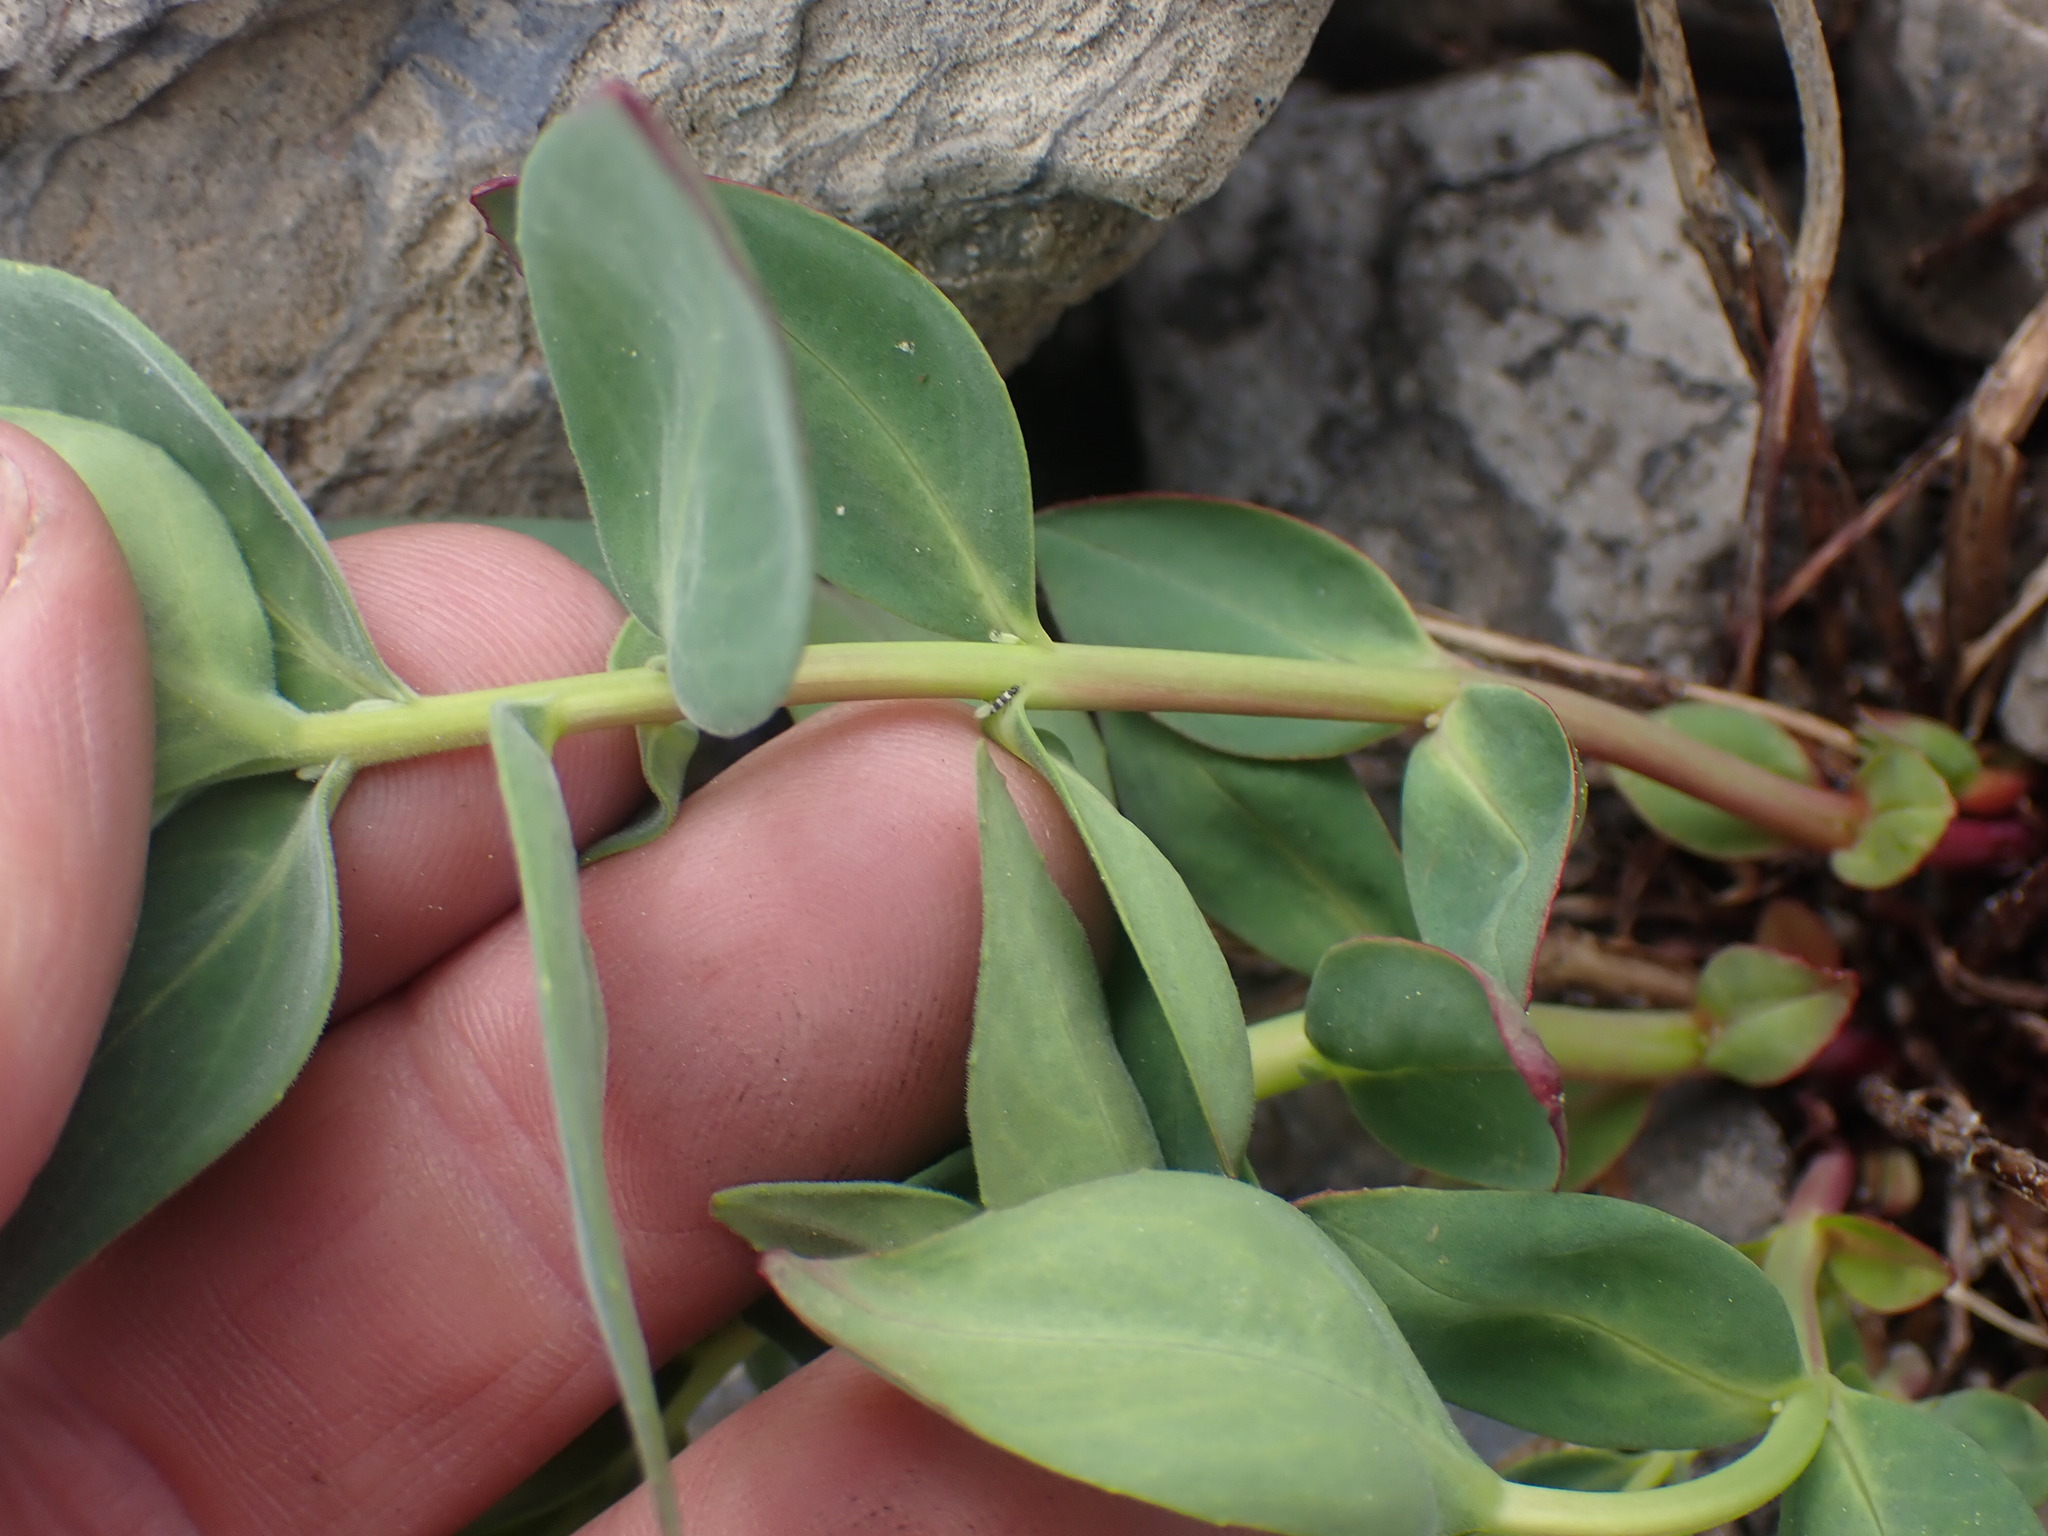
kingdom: Plantae
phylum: Tracheophyta
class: Magnoliopsida
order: Myrtales
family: Onagraceae
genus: Chamaenerion
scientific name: Chamaenerion latifolium
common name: Dwarf fireweed
